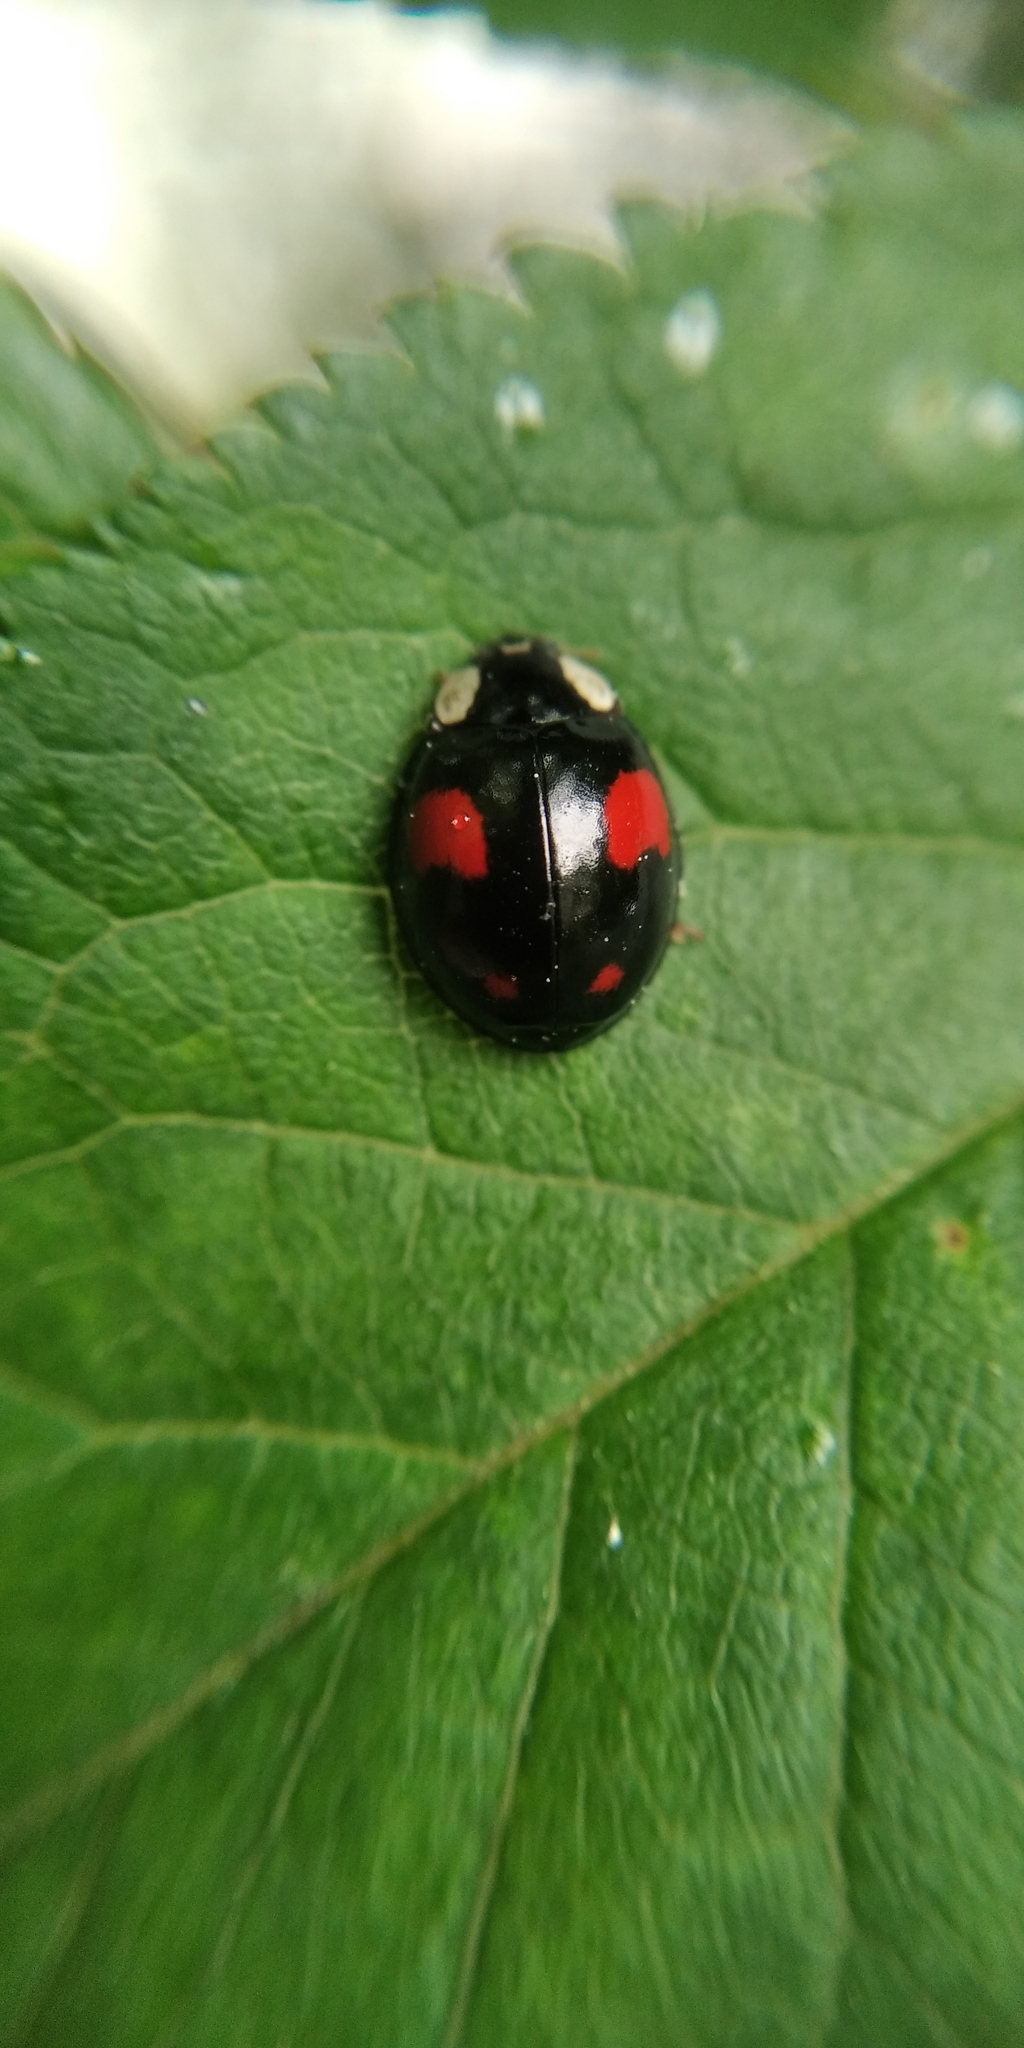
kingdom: Animalia
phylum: Arthropoda
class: Insecta
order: Coleoptera
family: Coccinellidae
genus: Harmonia
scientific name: Harmonia axyridis
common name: Harlequin ladybird
